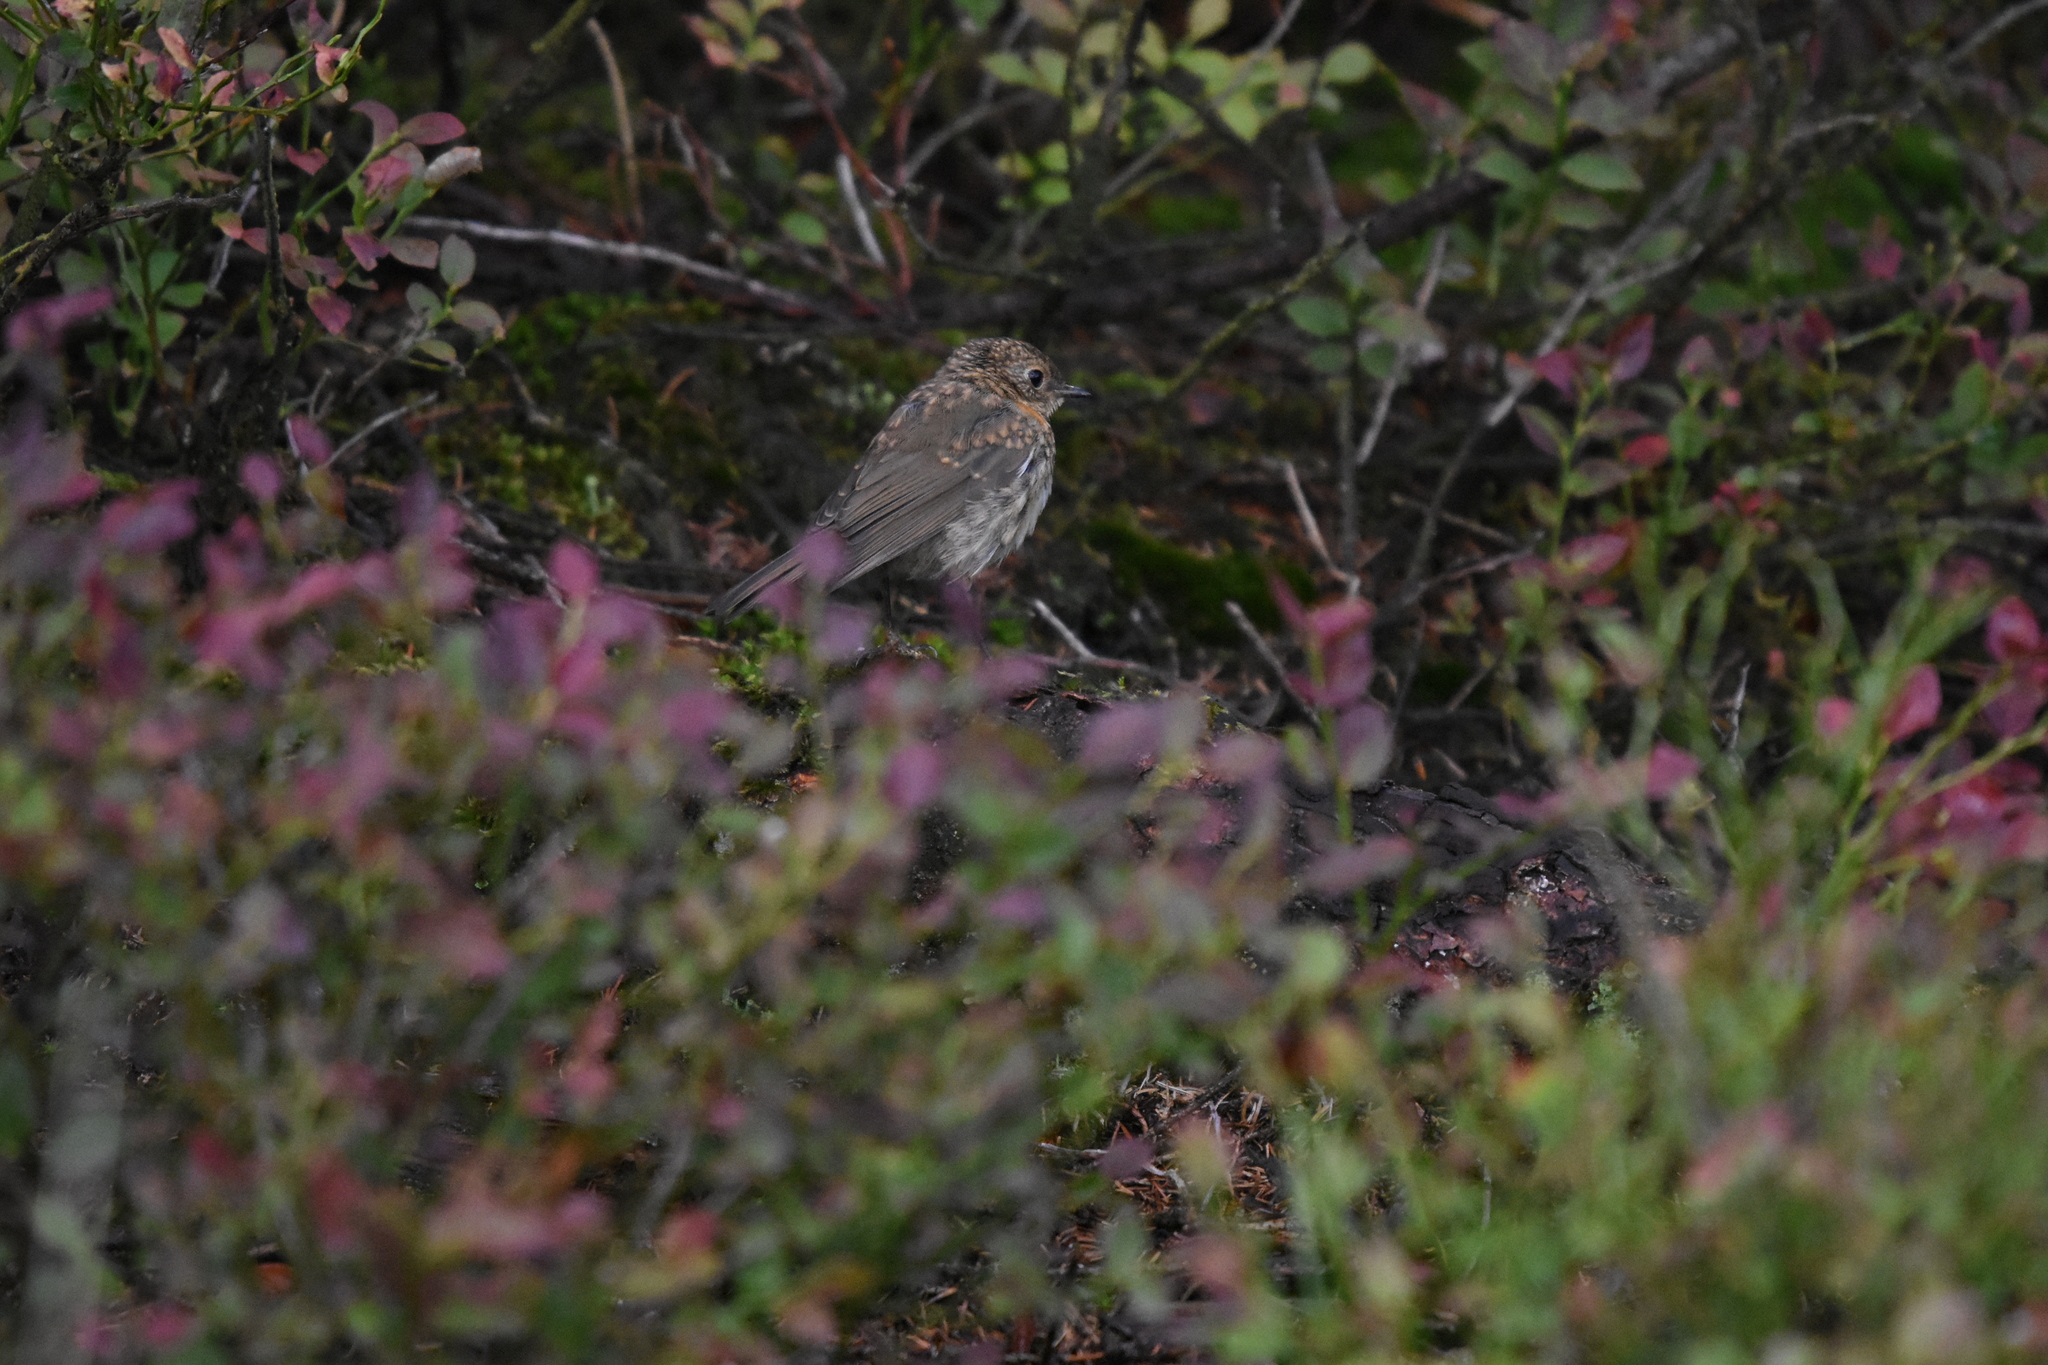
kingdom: Animalia
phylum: Chordata
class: Aves
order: Passeriformes
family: Muscicapidae
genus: Erithacus
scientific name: Erithacus rubecula
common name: European robin
